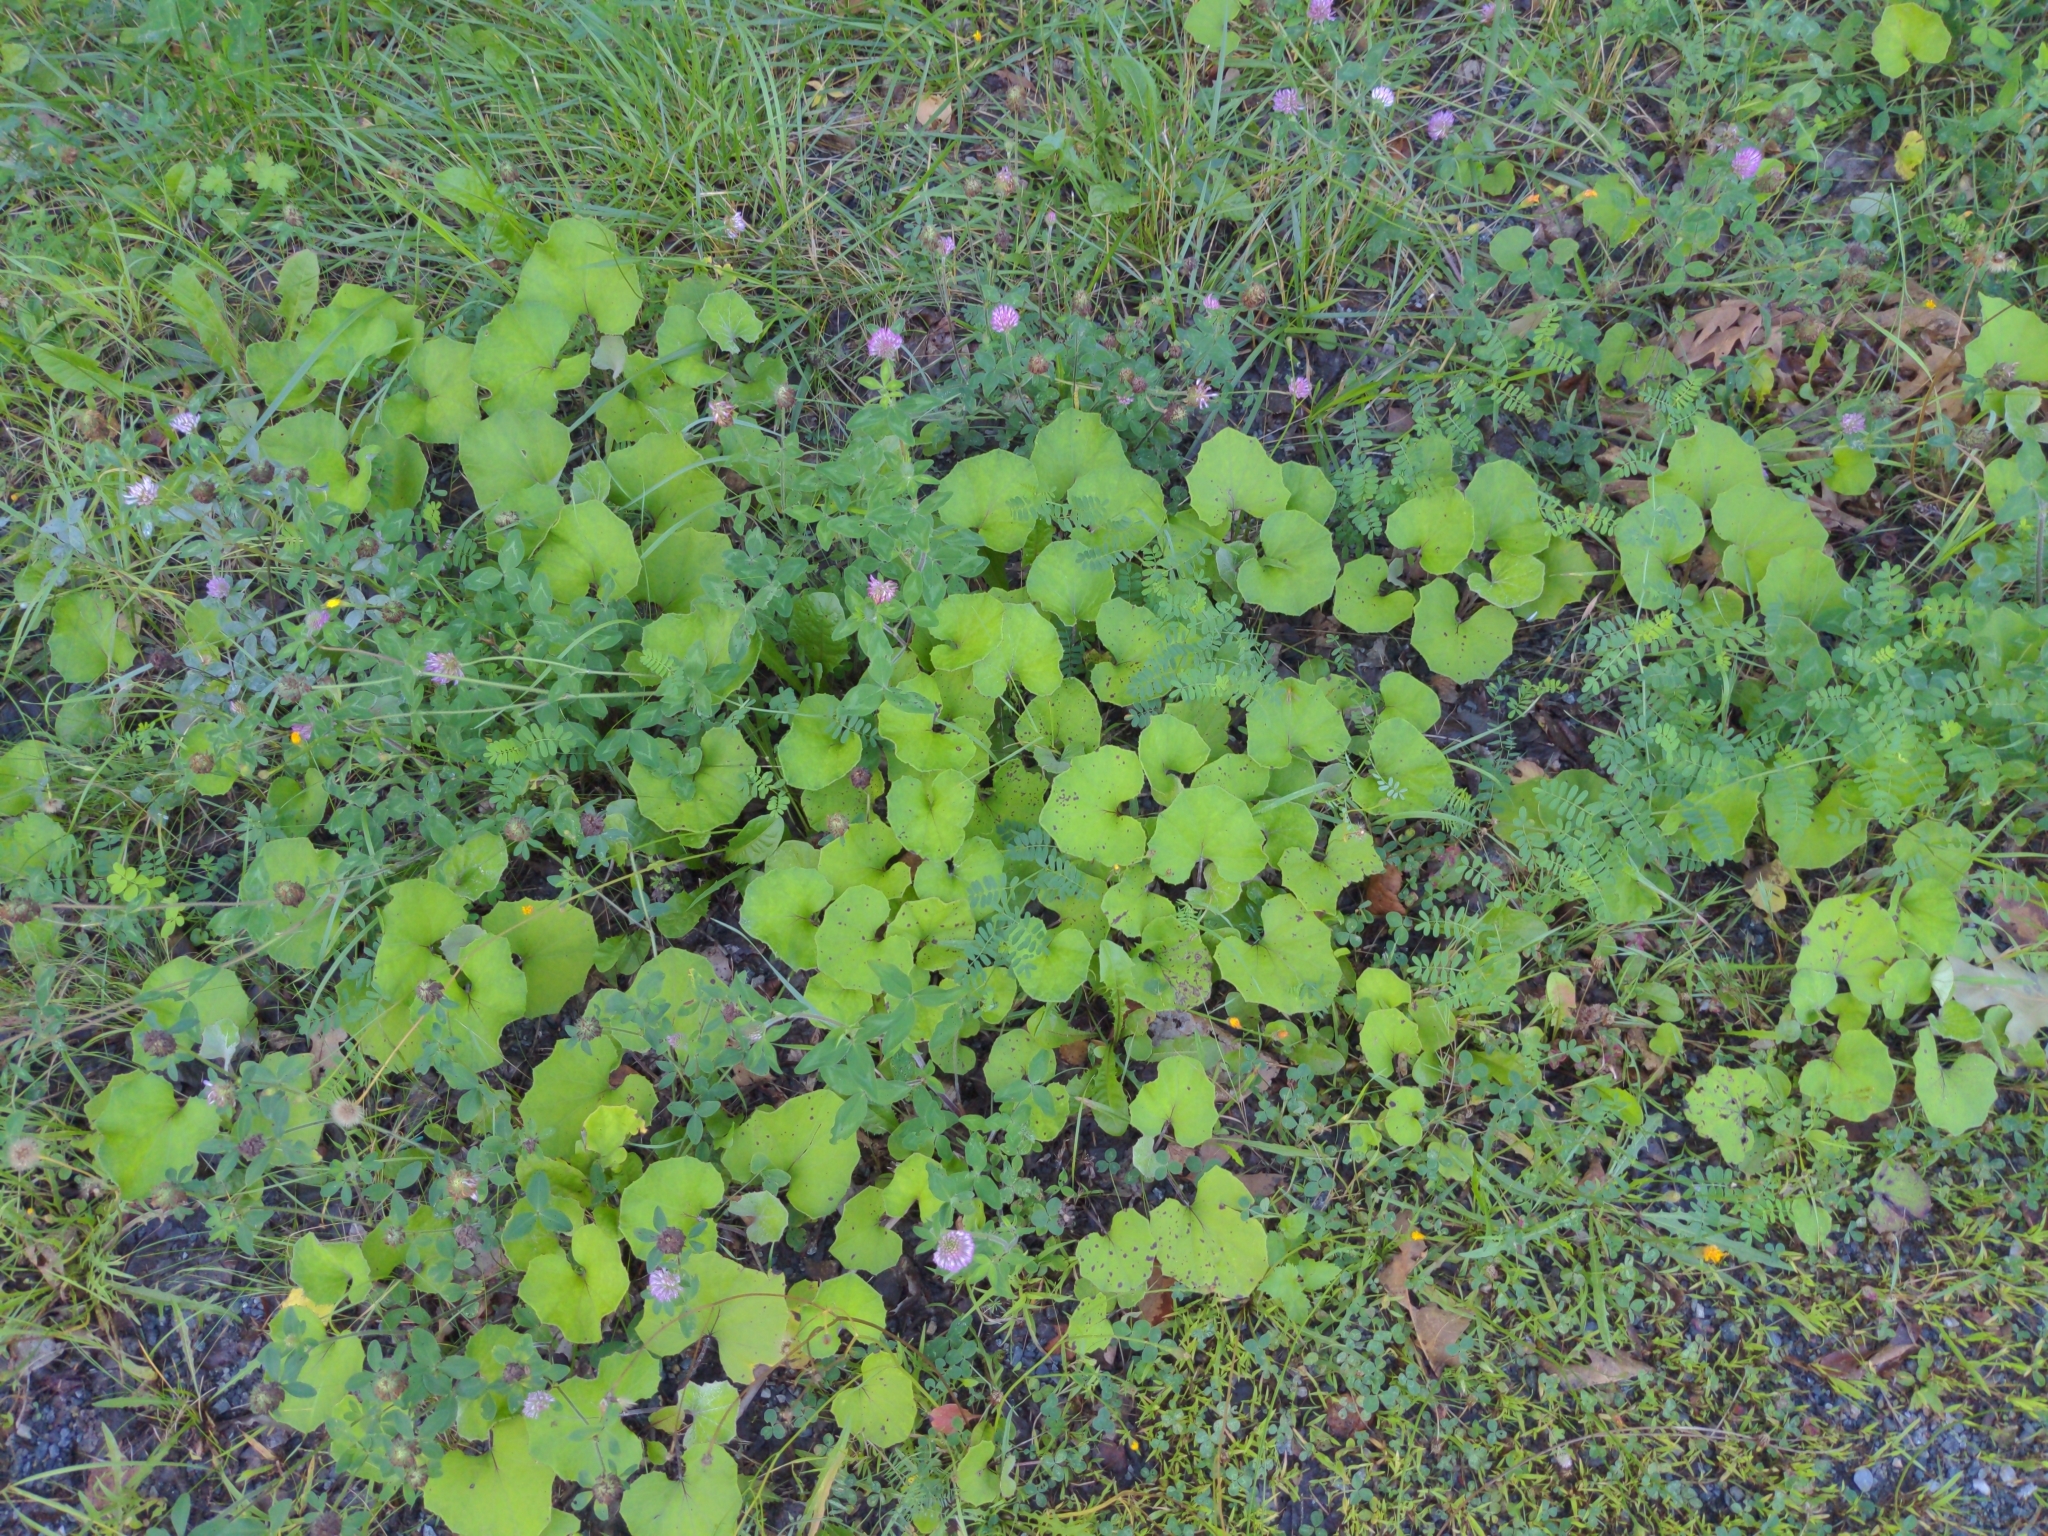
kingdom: Plantae
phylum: Tracheophyta
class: Magnoliopsida
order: Asterales
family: Asteraceae
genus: Tussilago
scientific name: Tussilago farfara
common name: Coltsfoot
